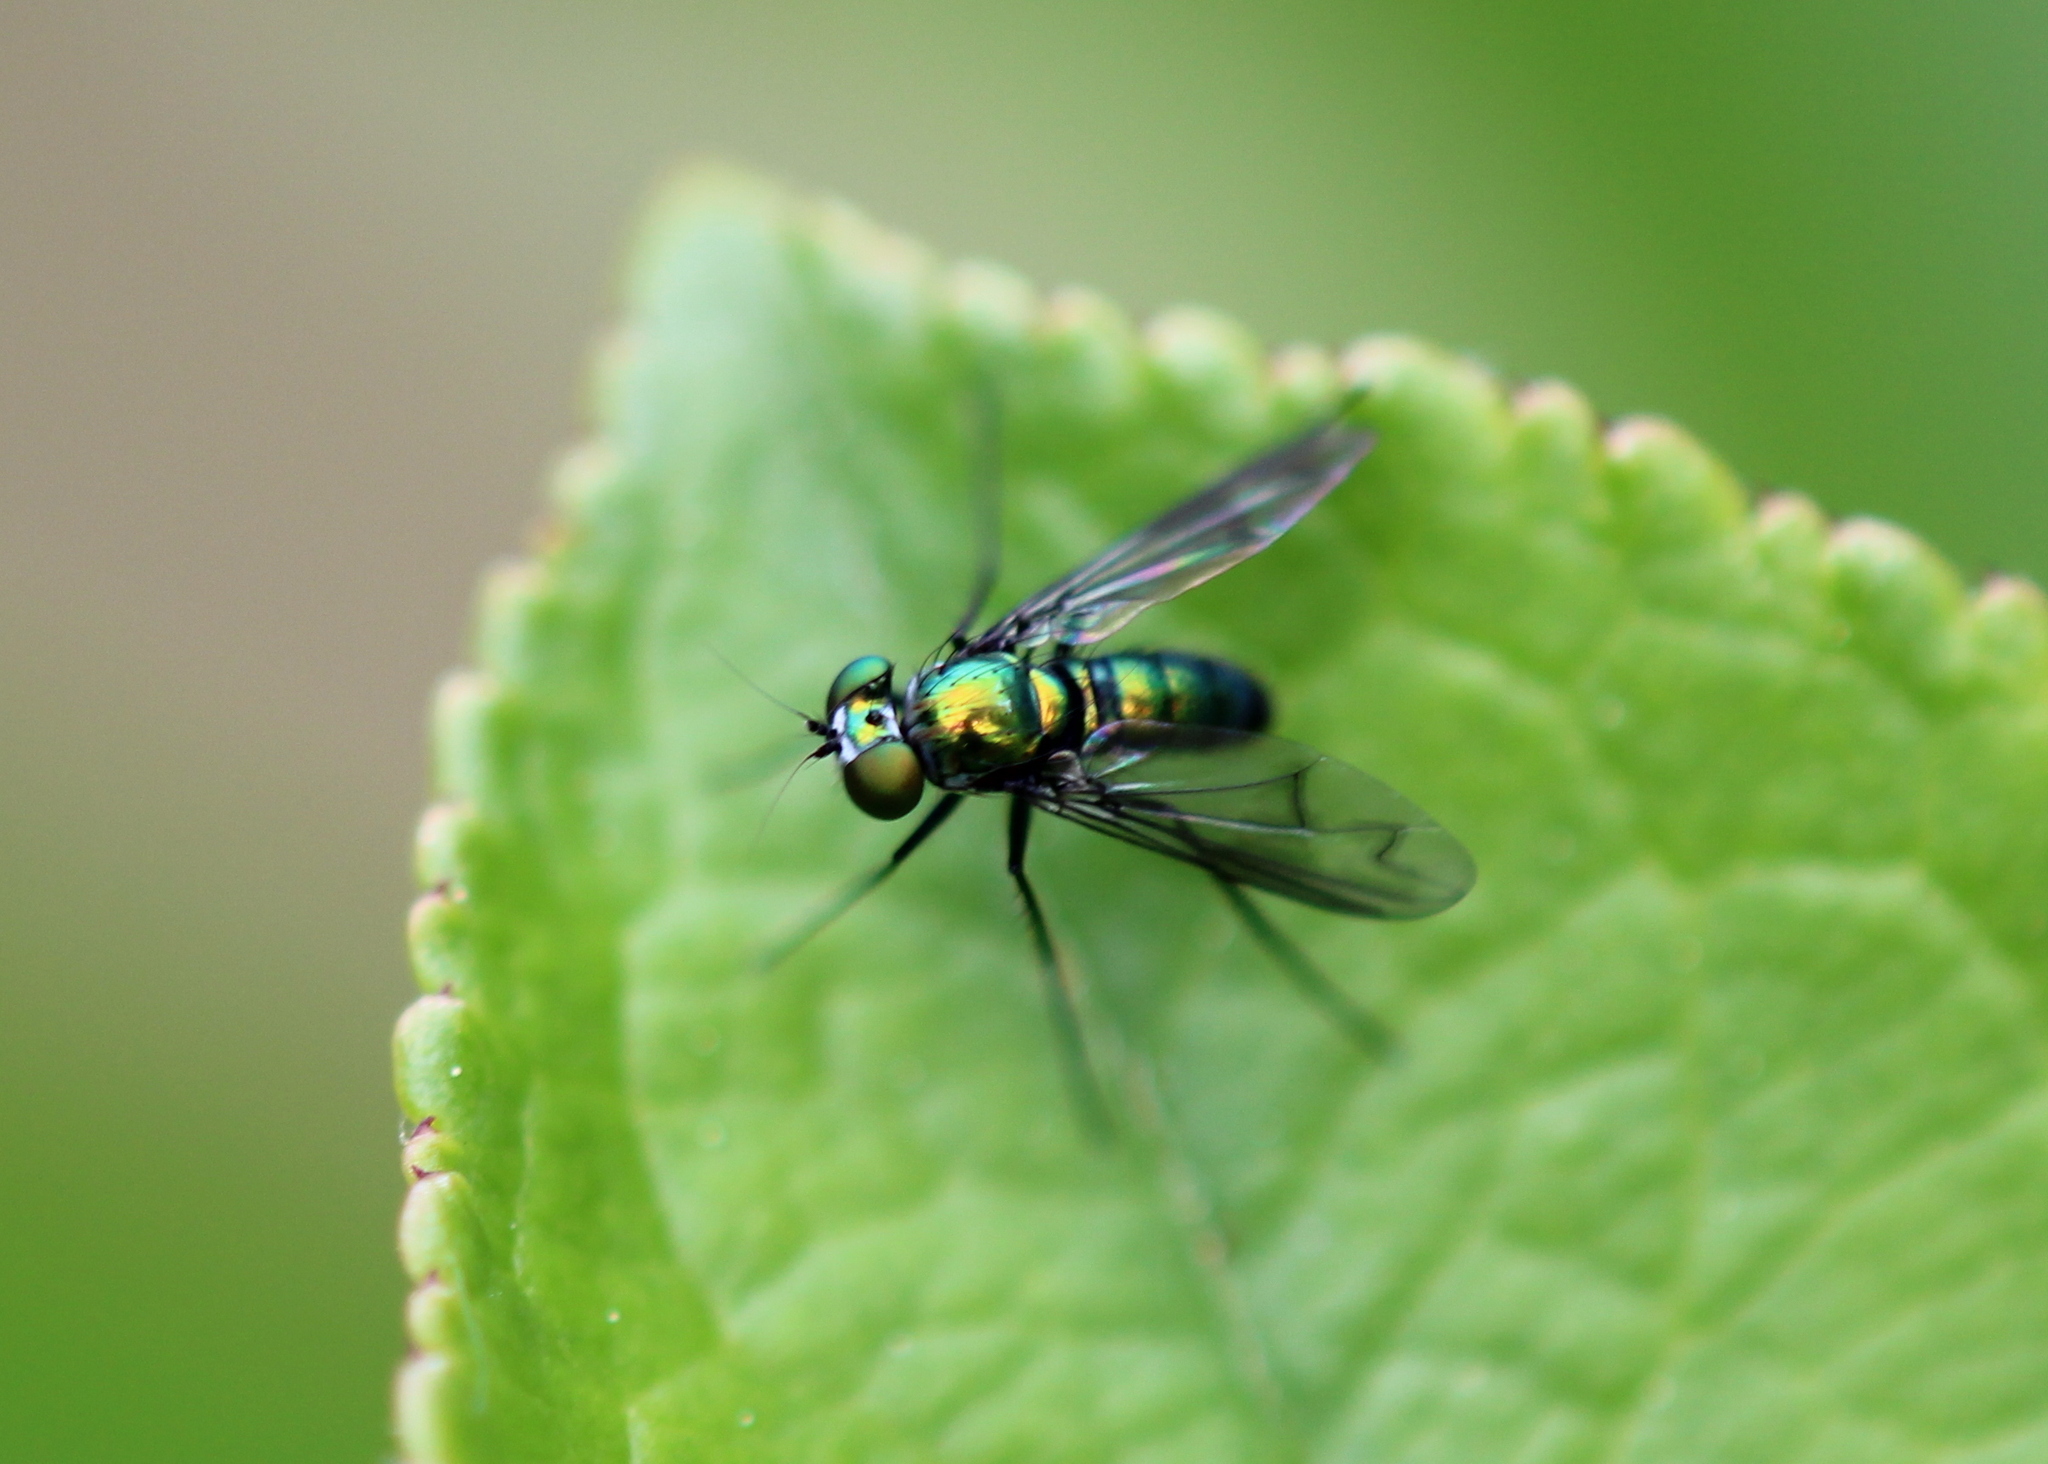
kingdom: Animalia
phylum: Arthropoda
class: Insecta
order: Diptera
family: Dolichopodidae
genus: Condylostylus
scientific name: Condylostylus patibulatus
